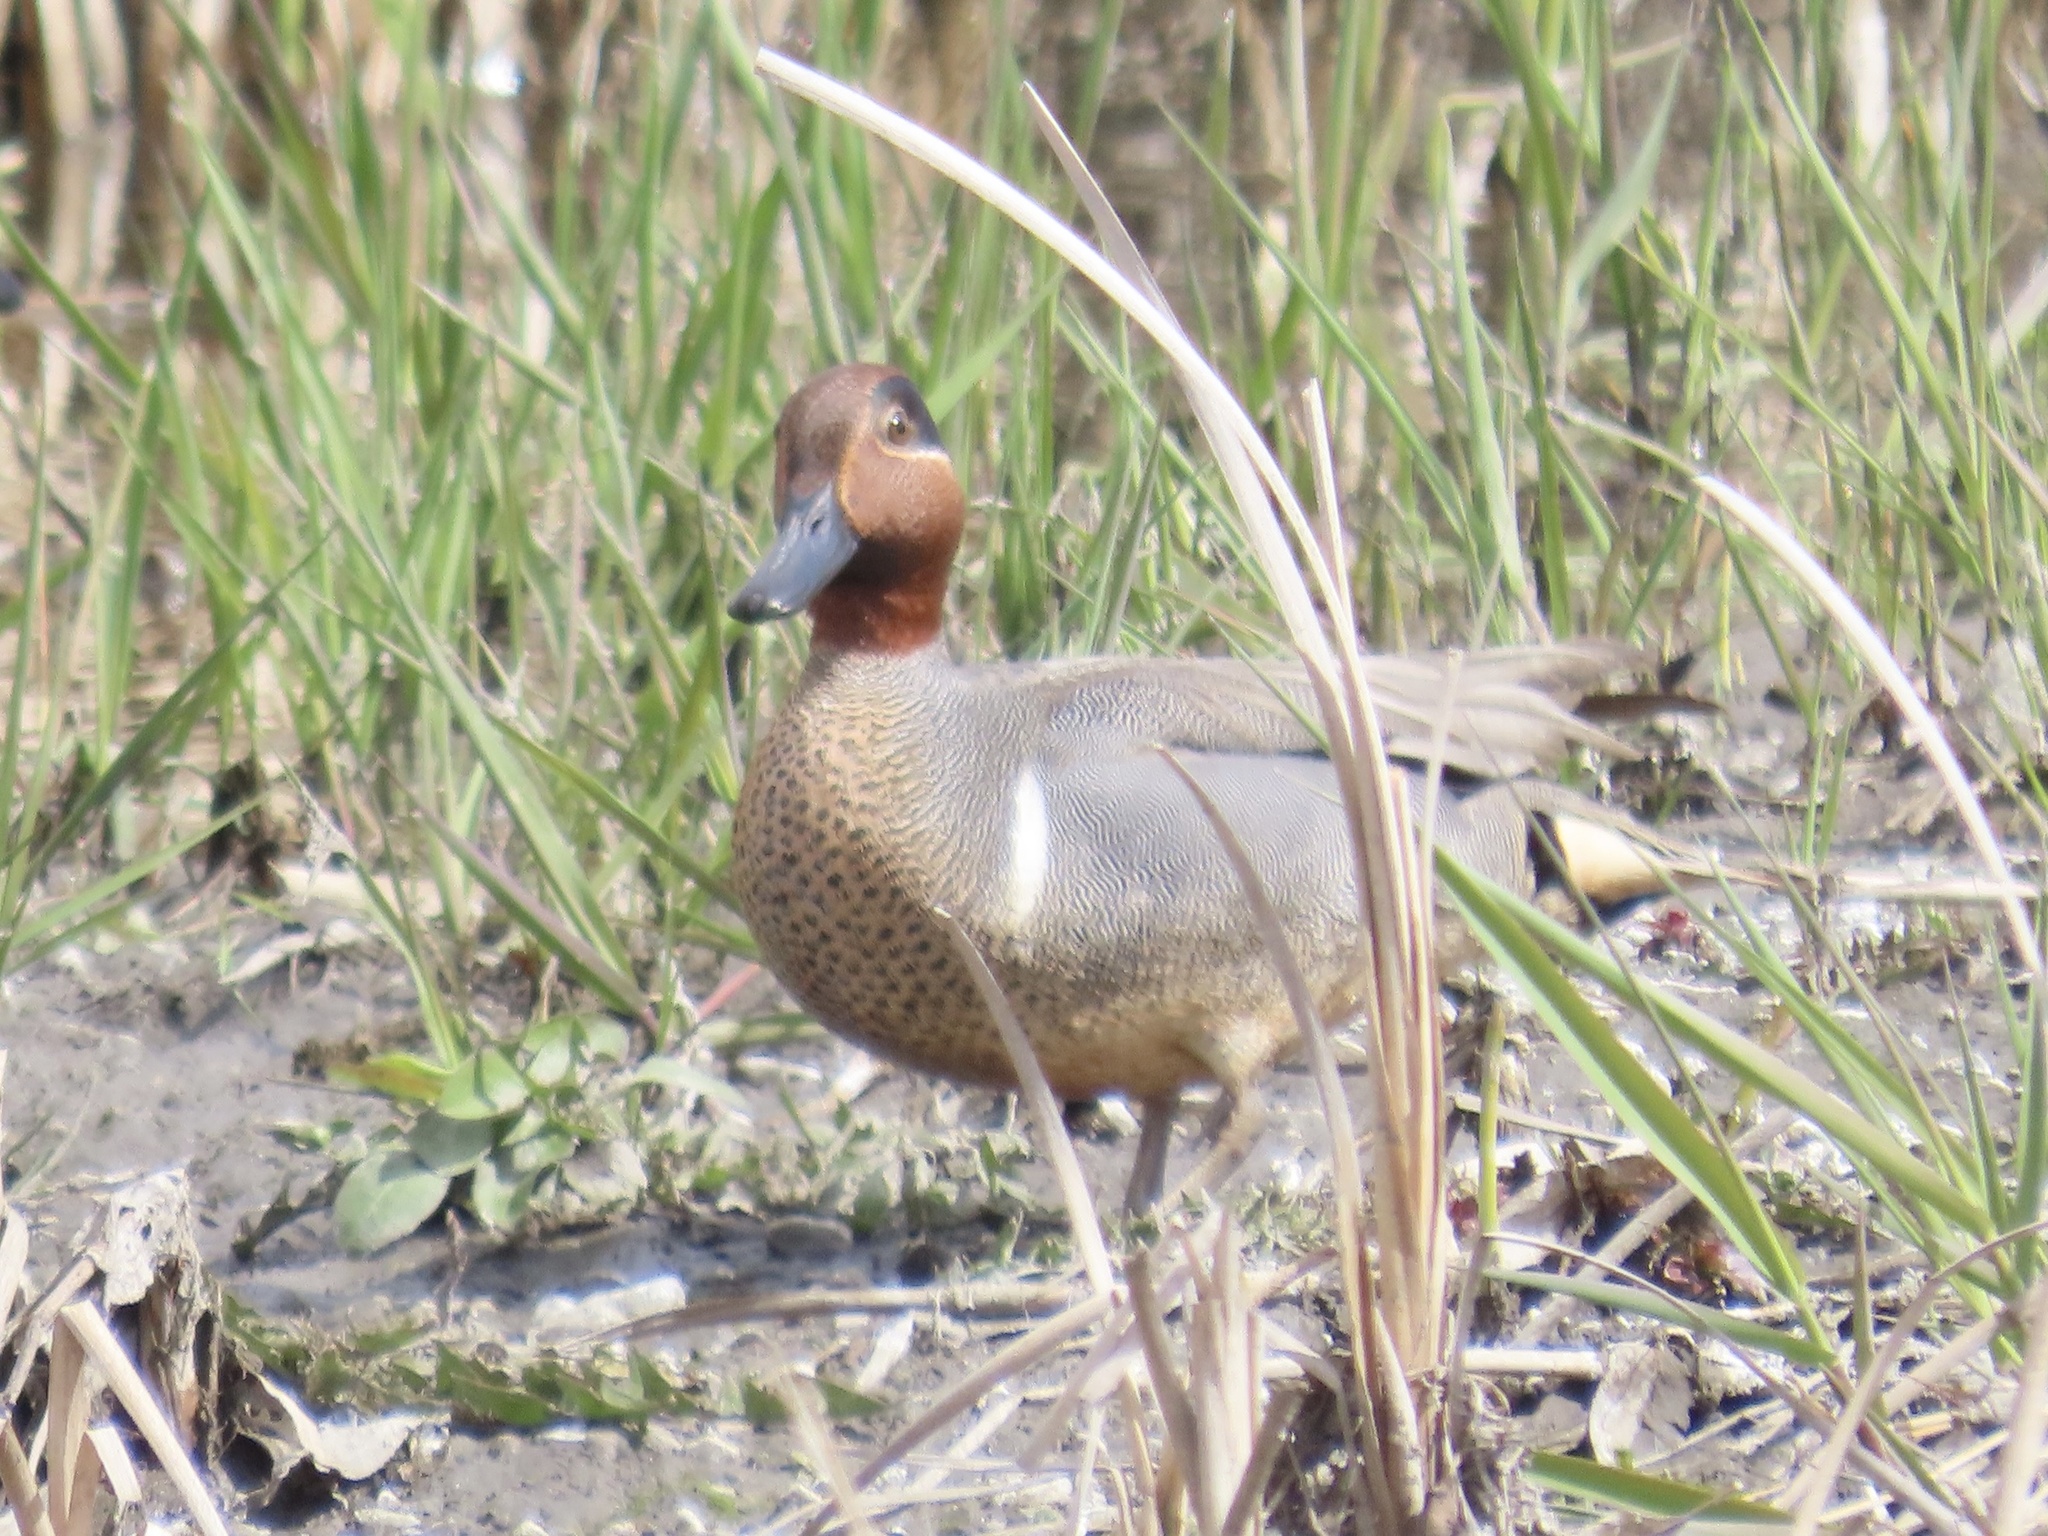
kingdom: Animalia
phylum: Chordata
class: Aves
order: Anseriformes
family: Anatidae
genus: Anas
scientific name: Anas crecca
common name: Eurasian teal
